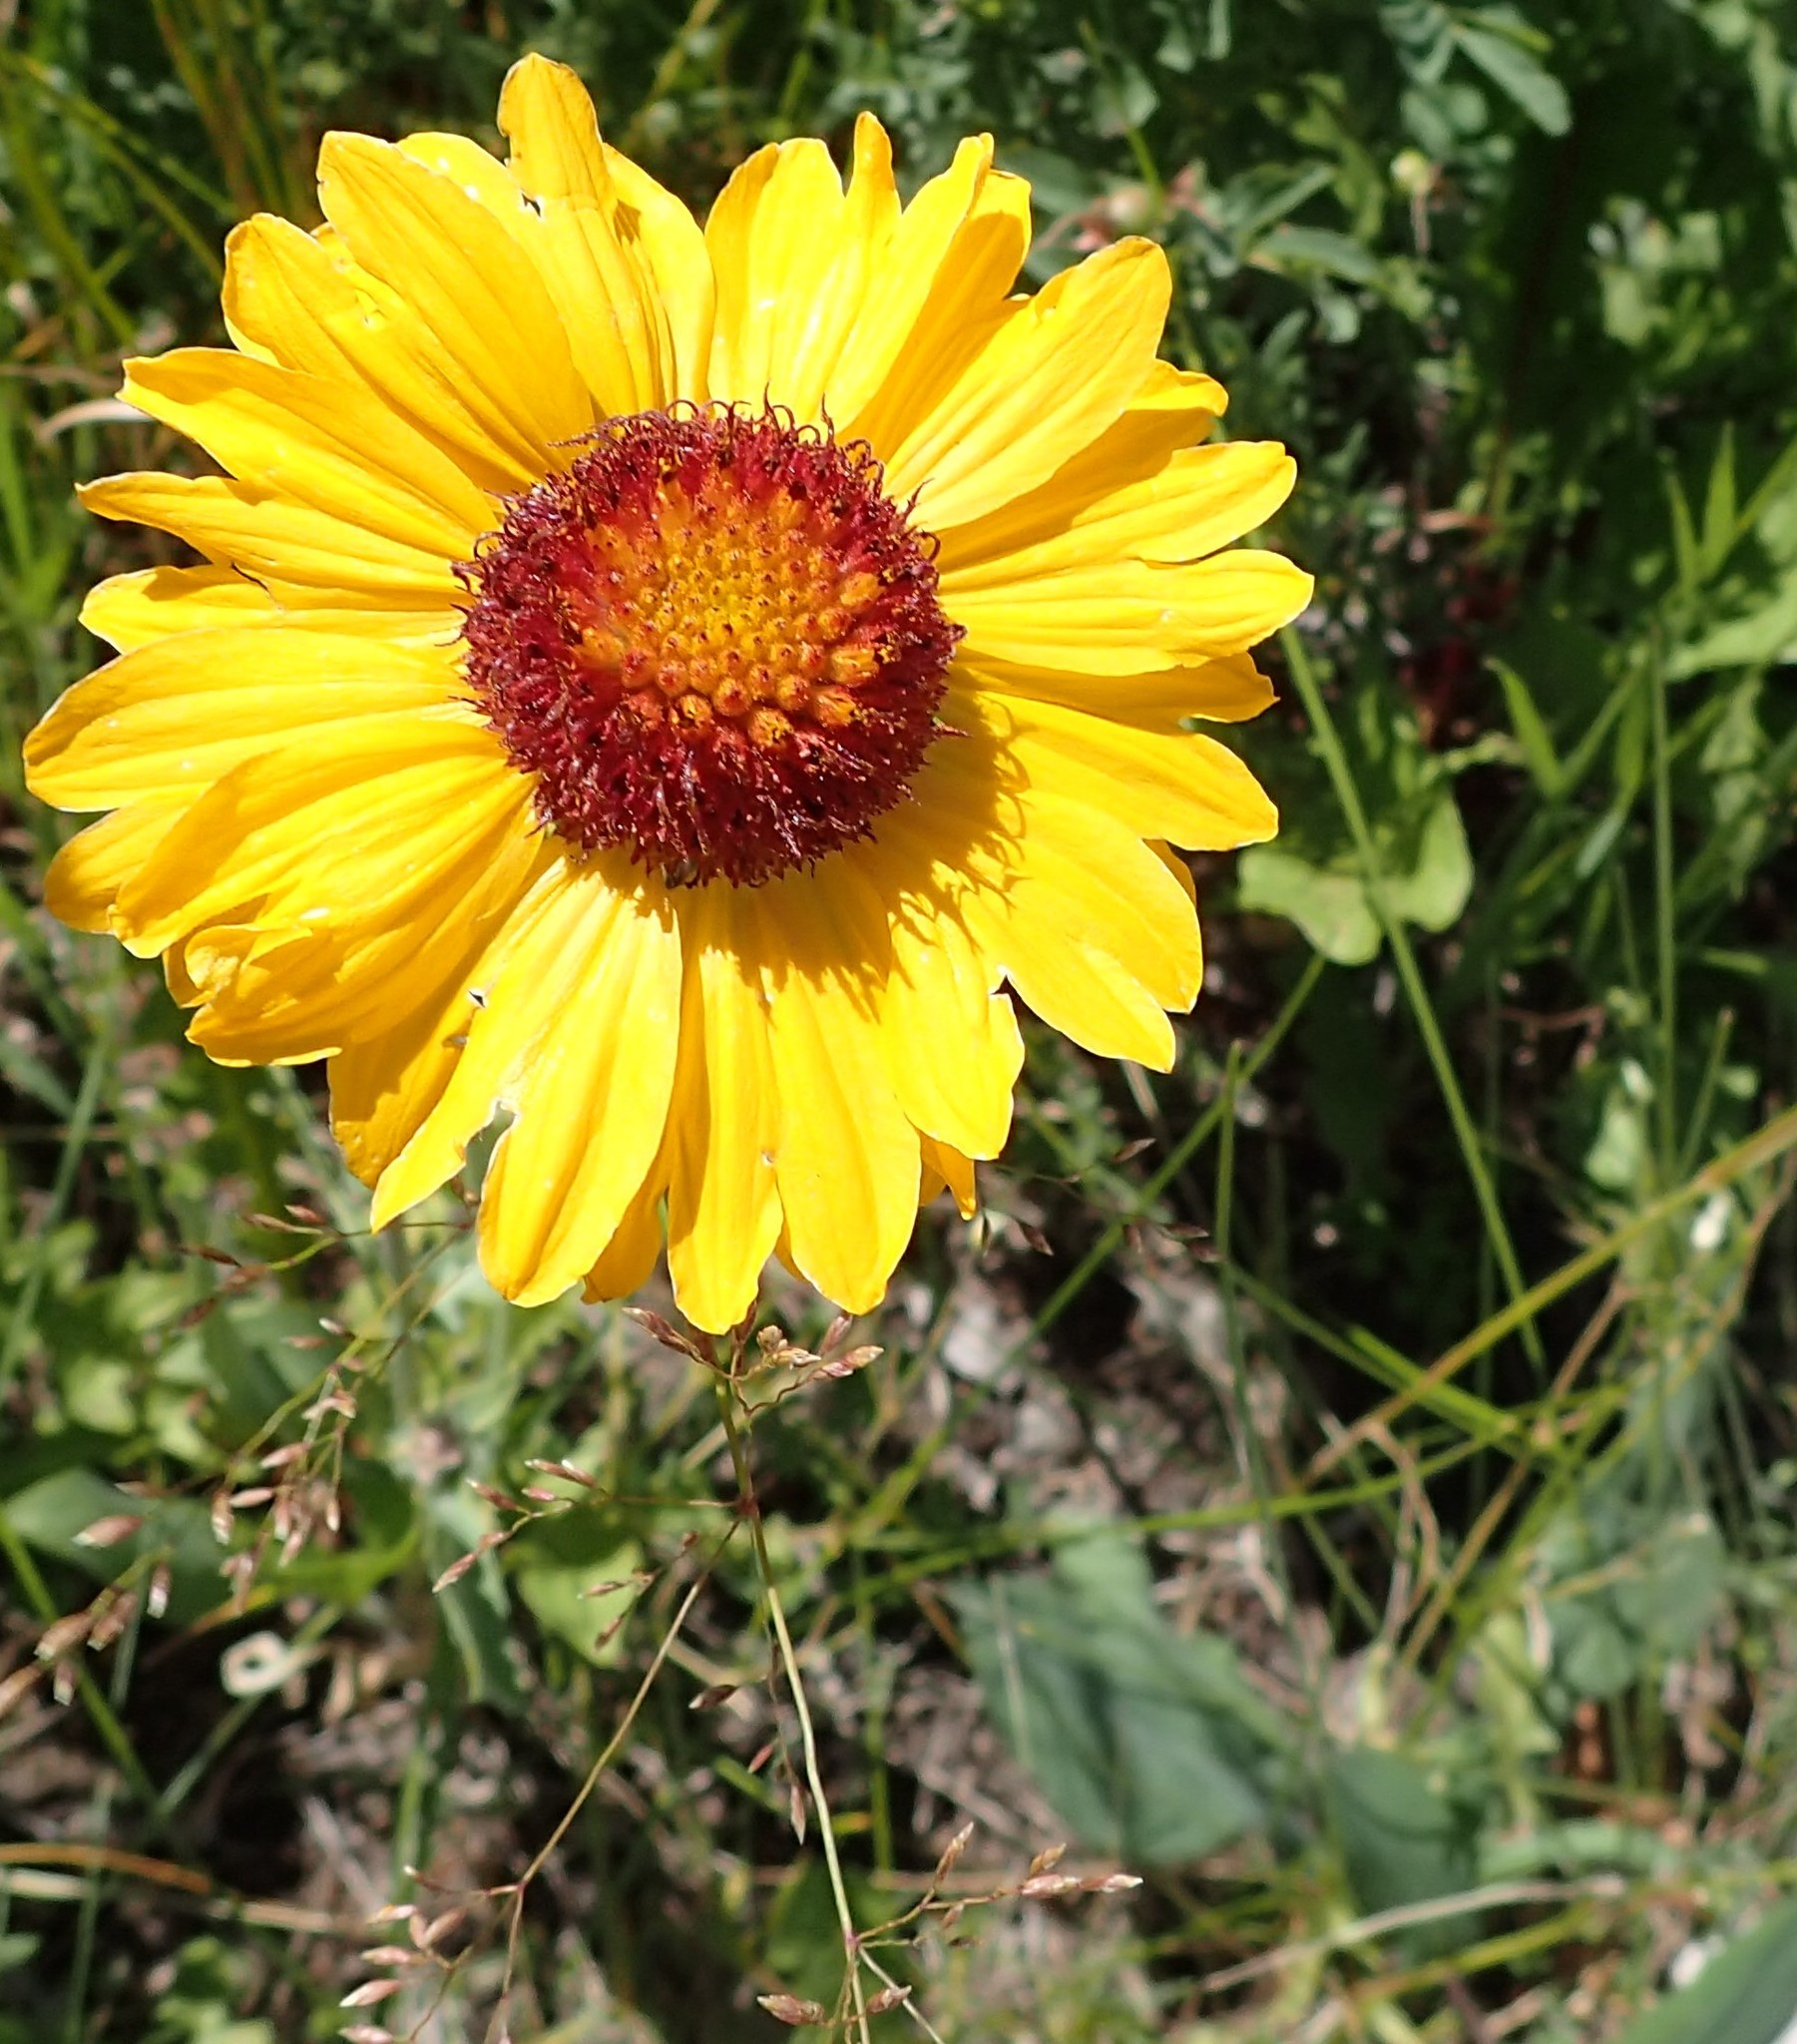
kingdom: Plantae
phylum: Tracheophyta
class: Magnoliopsida
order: Asterales
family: Asteraceae
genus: Gaillardia
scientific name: Gaillardia aristata
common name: Blanket-flower
